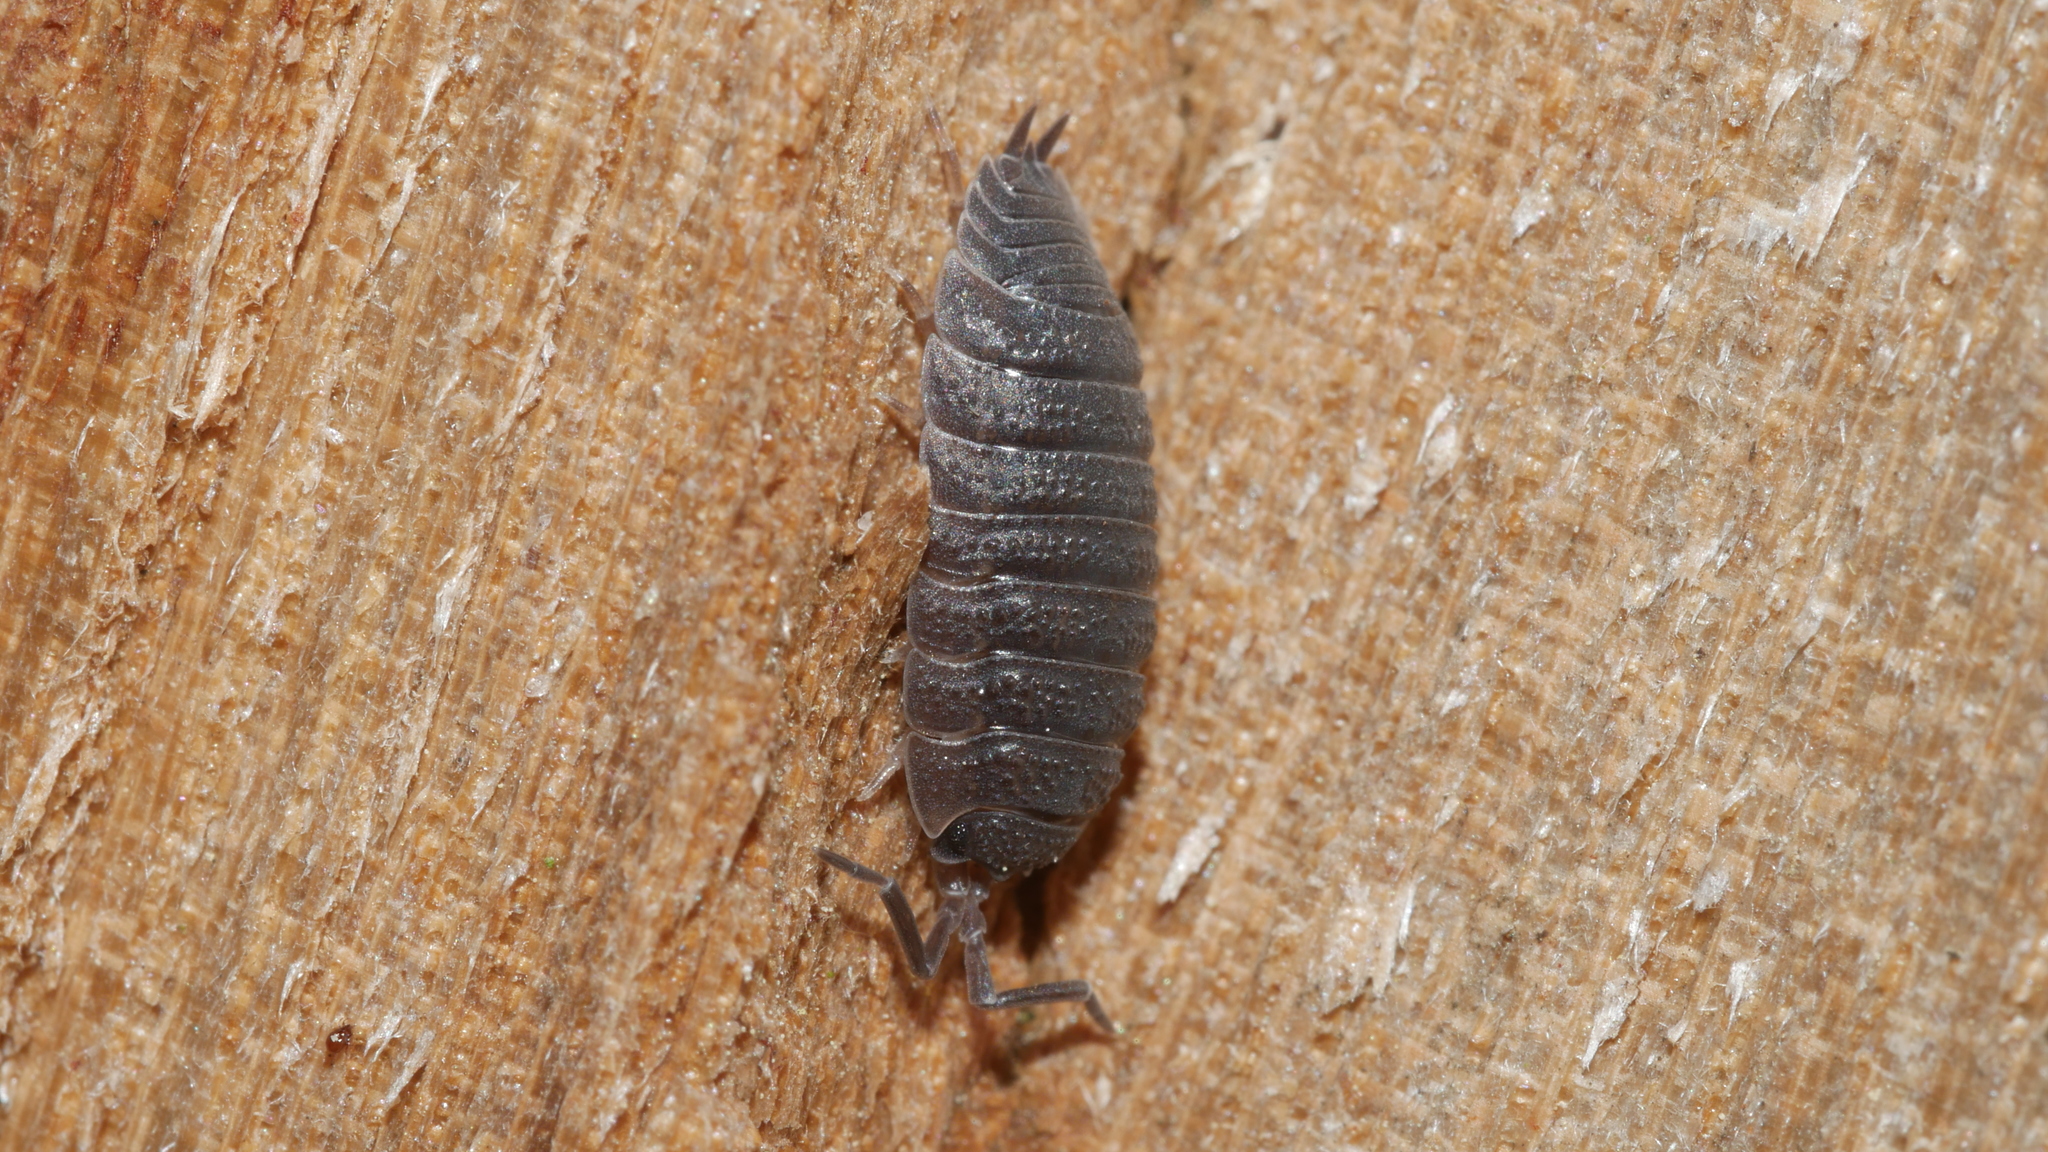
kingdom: Animalia
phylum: Arthropoda
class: Malacostraca
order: Isopoda
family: Porcellionidae
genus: Porcellio
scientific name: Porcellio scaber
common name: Common rough woodlouse
